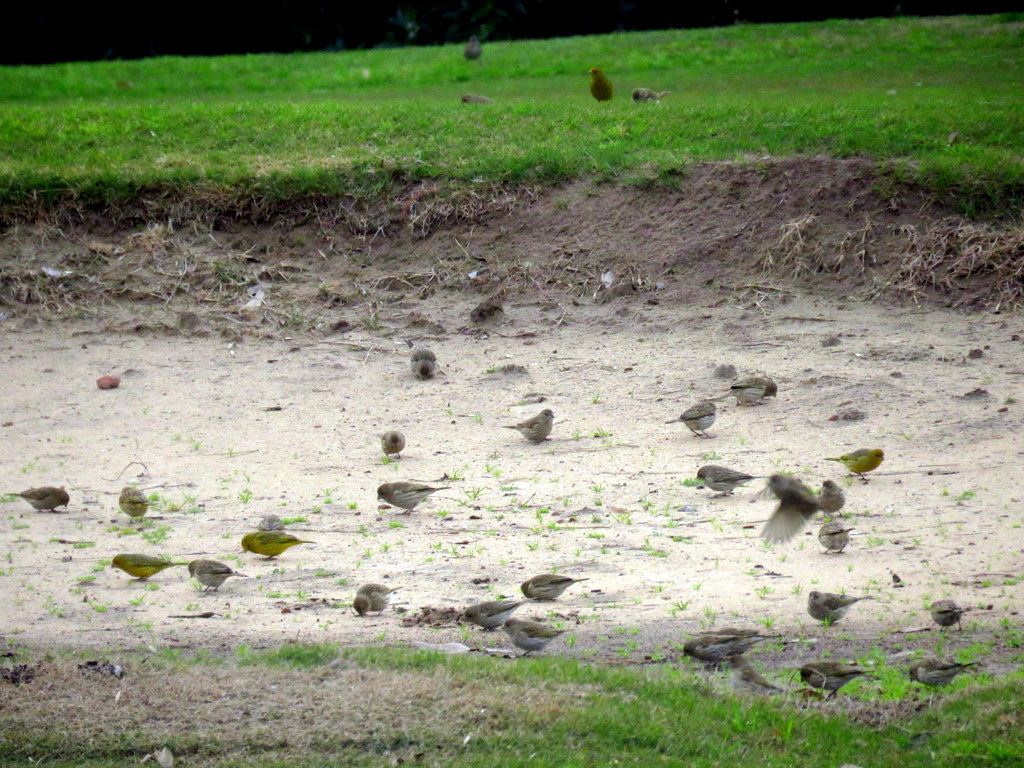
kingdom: Animalia
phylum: Chordata
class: Aves
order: Passeriformes
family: Thraupidae
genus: Sicalis
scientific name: Sicalis flaveola
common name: Saffron finch
